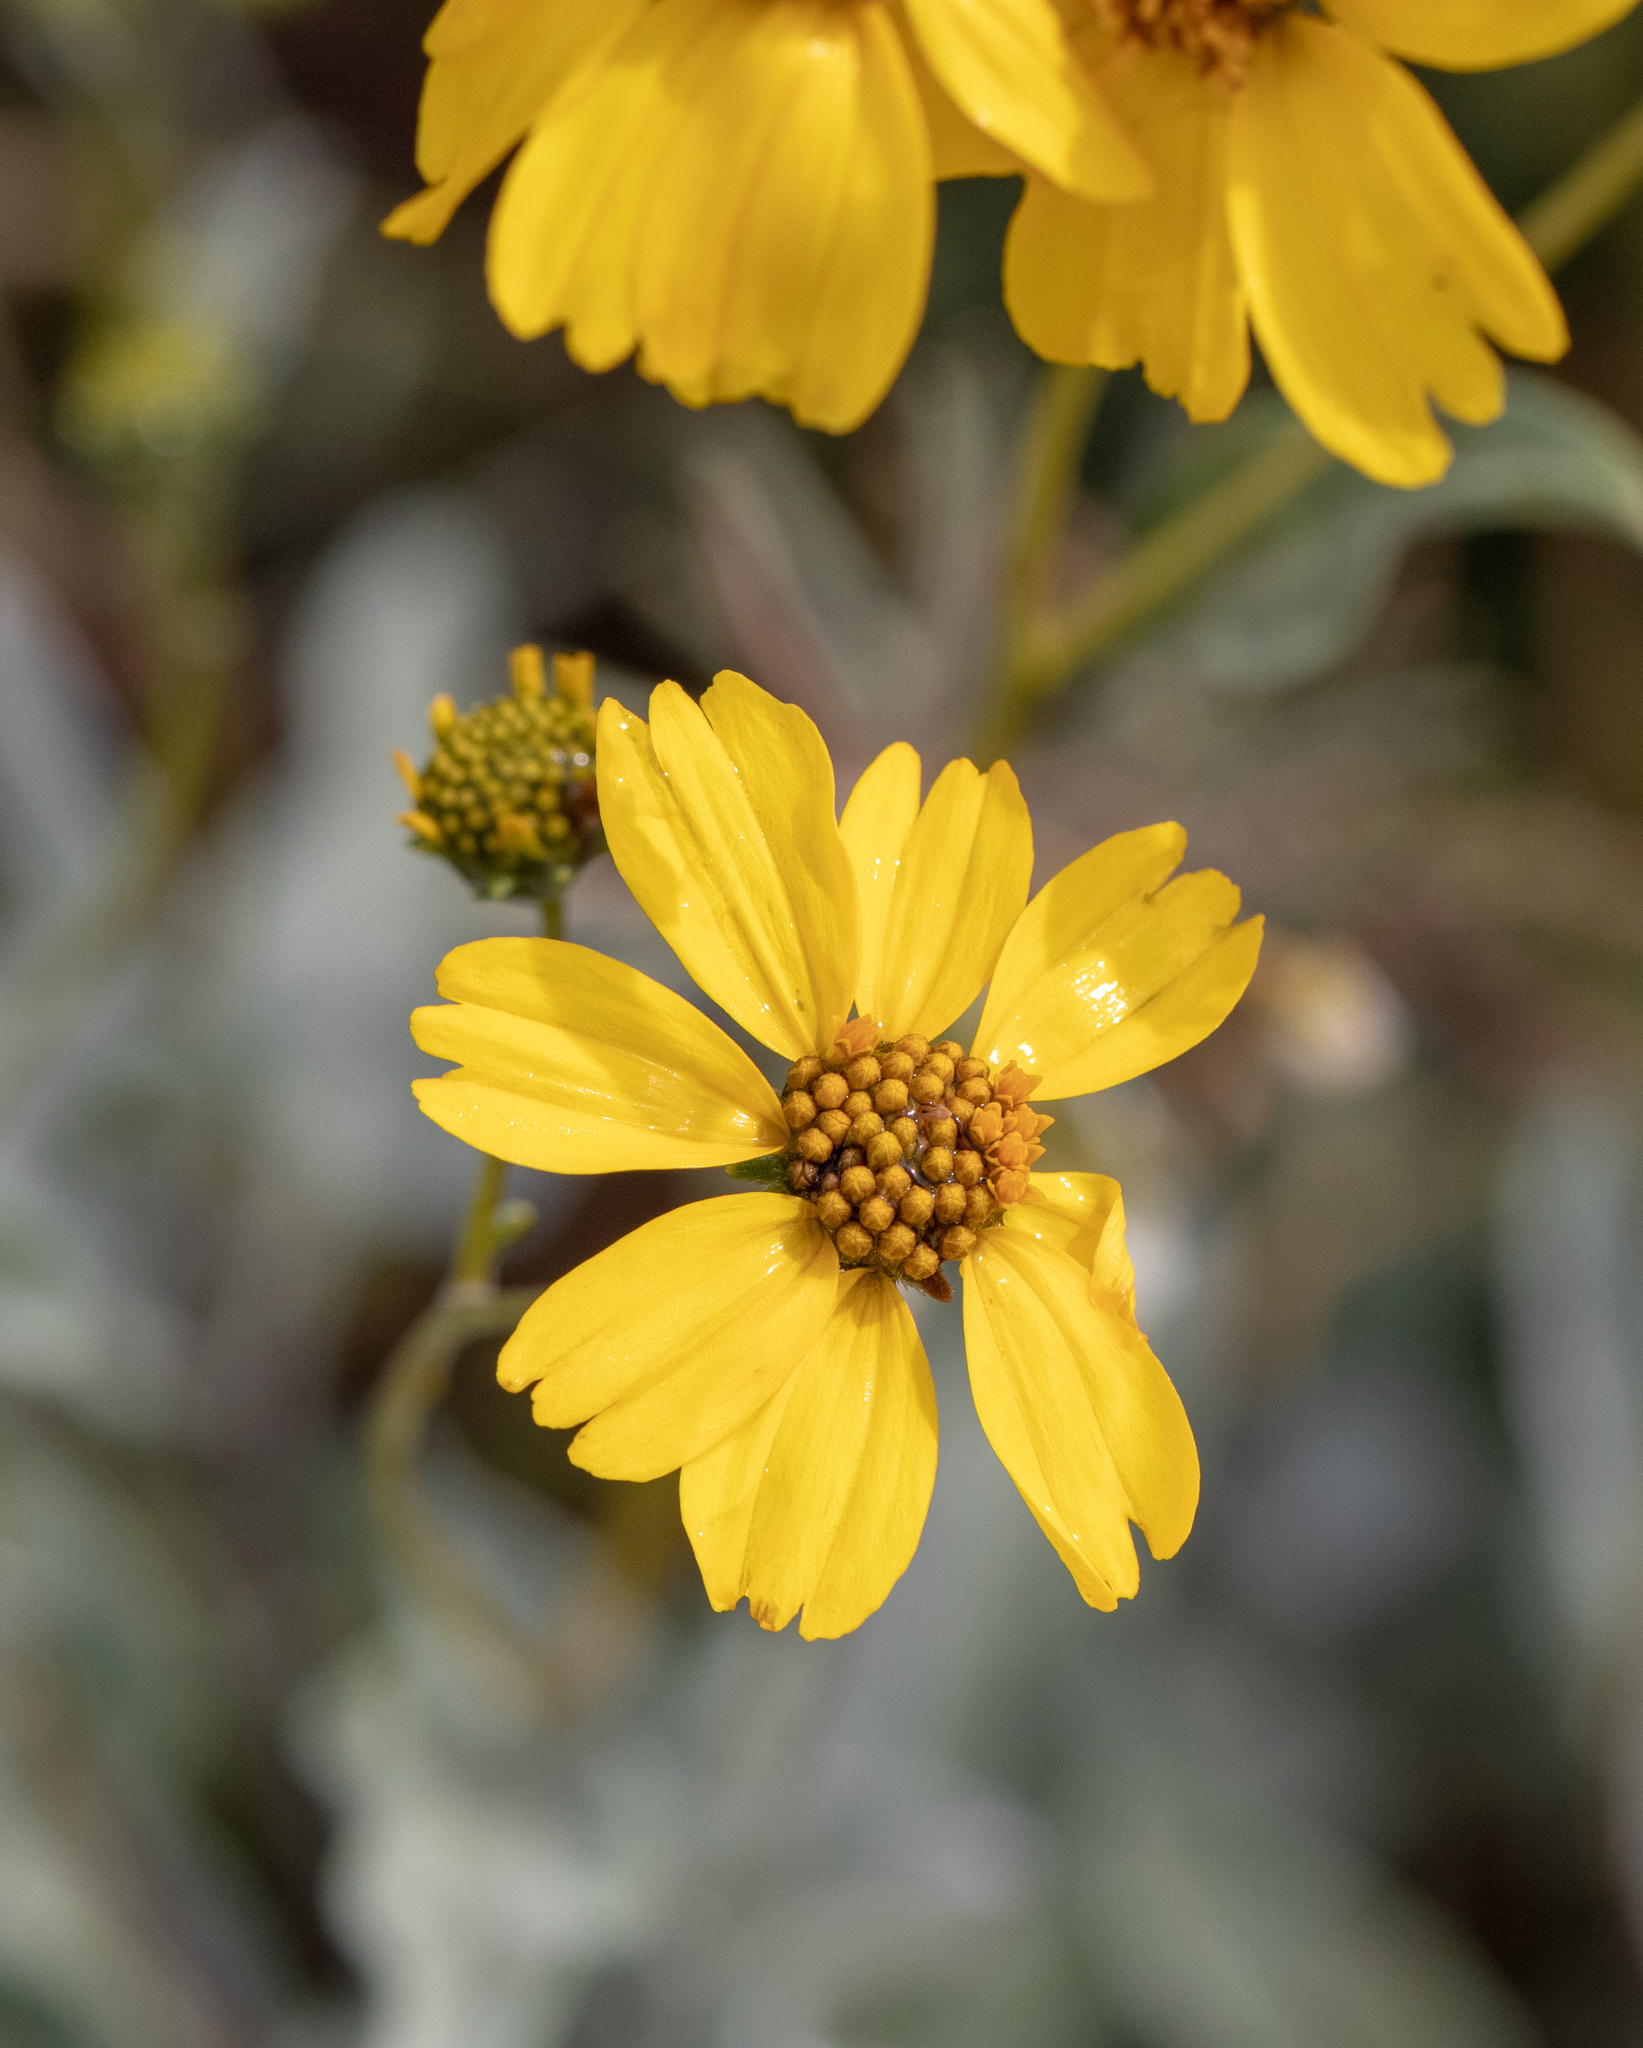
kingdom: Plantae
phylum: Tracheophyta
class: Magnoliopsida
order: Asterales
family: Asteraceae
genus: Encelia
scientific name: Encelia farinosa
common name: Brittlebush
